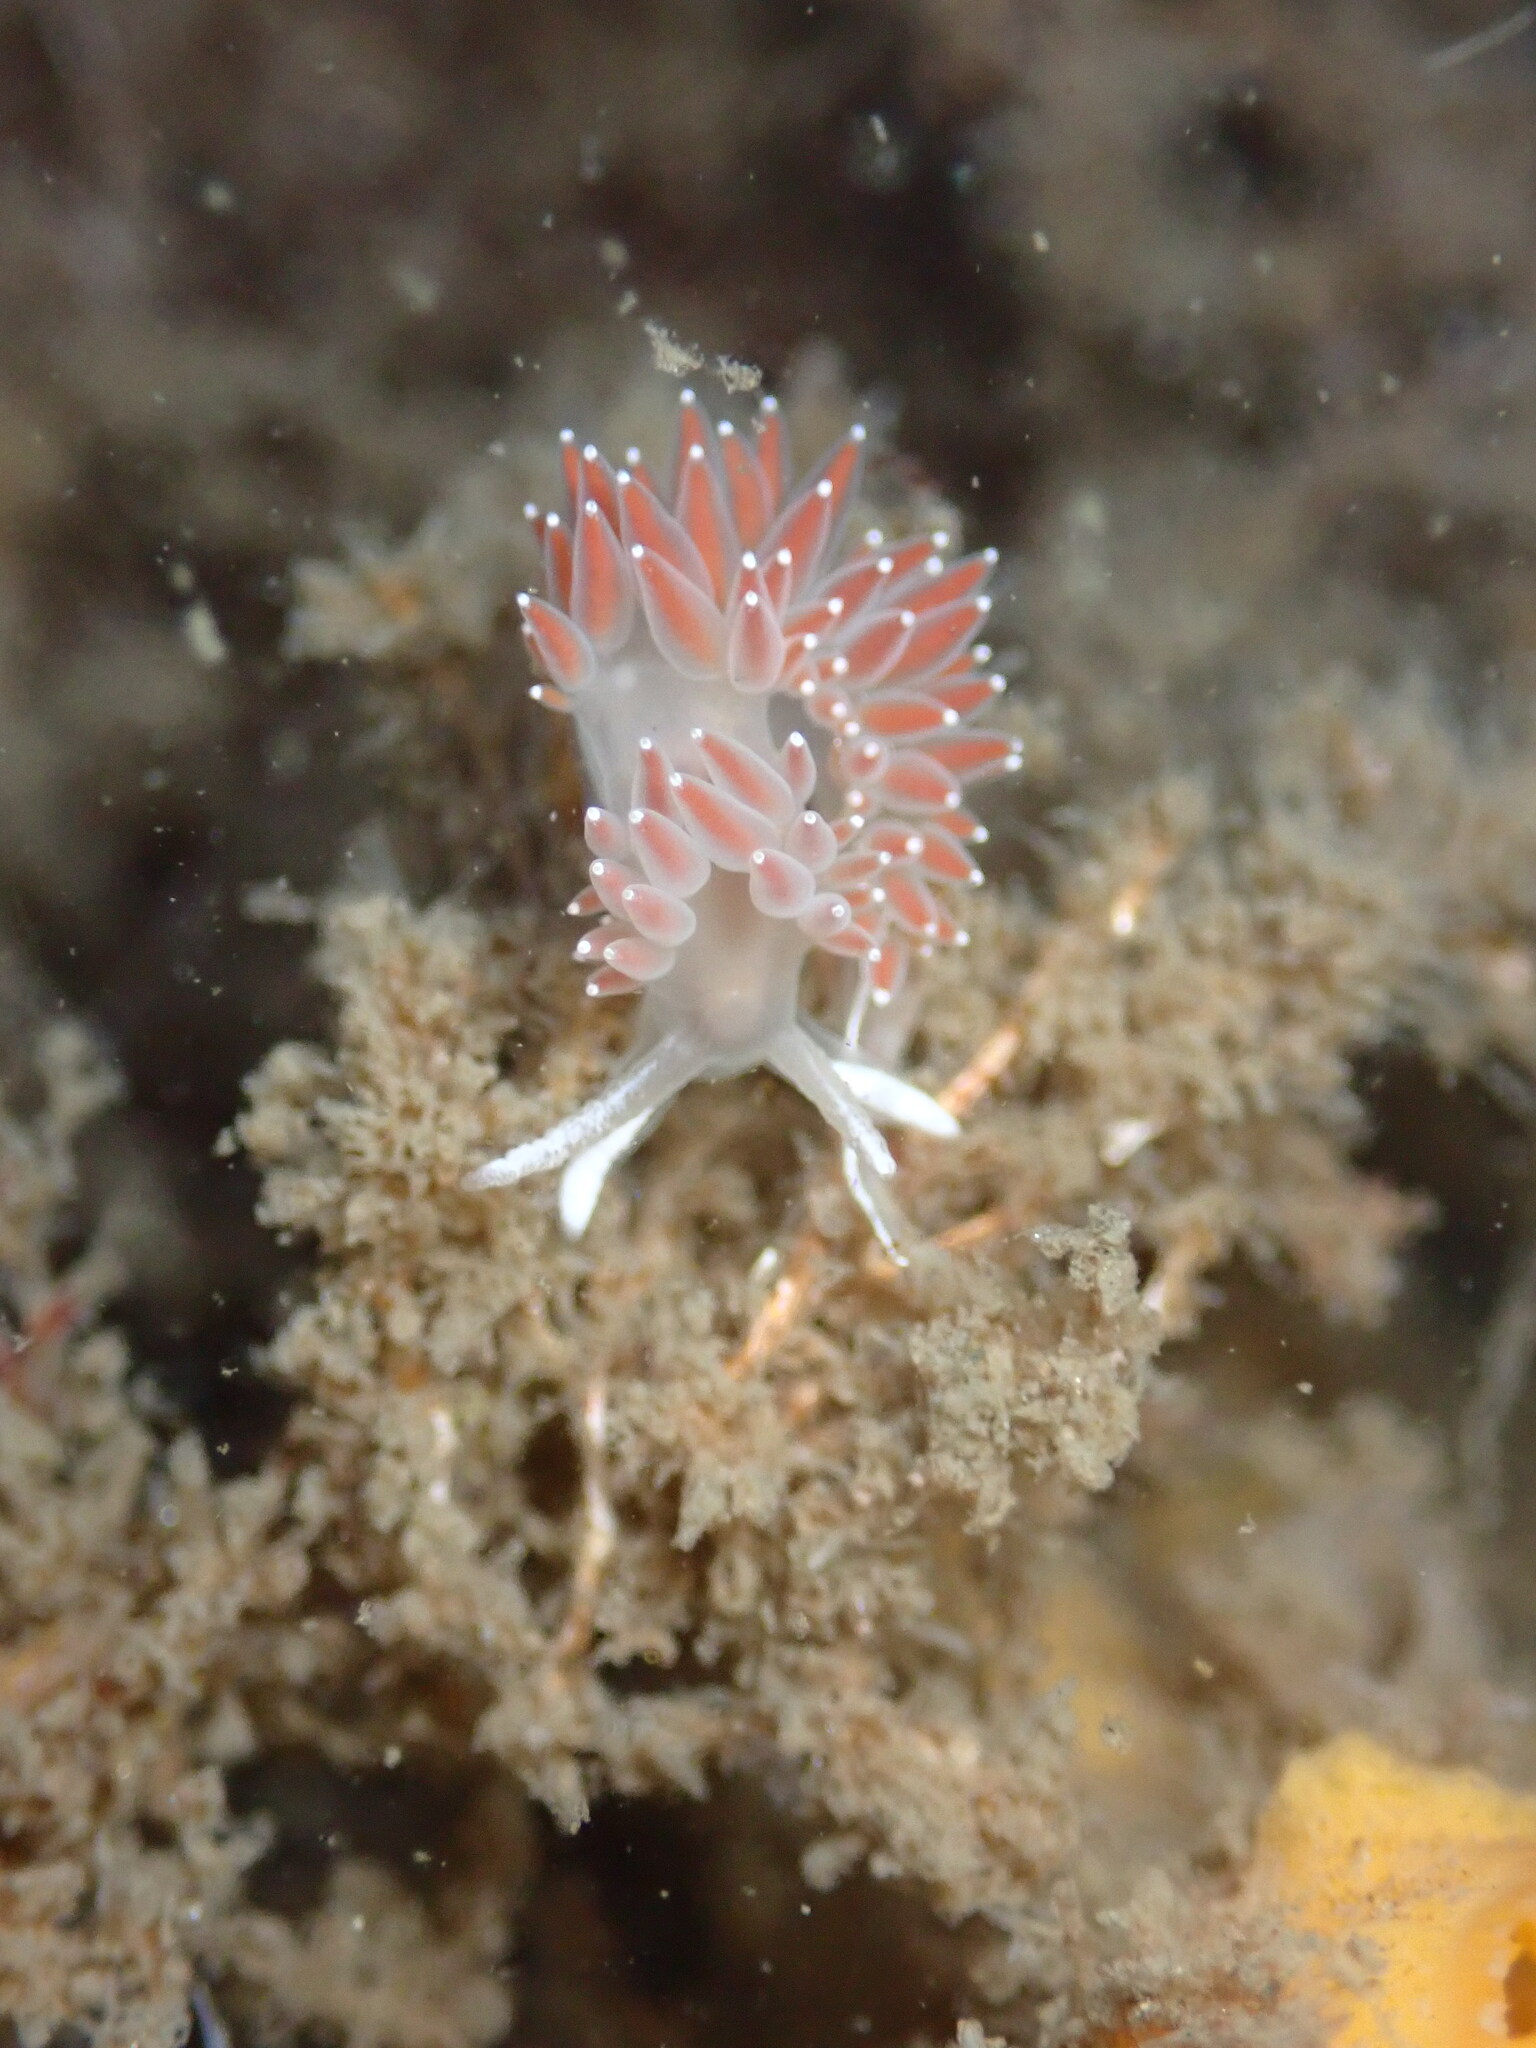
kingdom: Animalia
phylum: Mollusca
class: Gastropoda
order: Nudibranchia
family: Coryphellidae
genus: Coryphella
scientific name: Coryphella verrucosa
